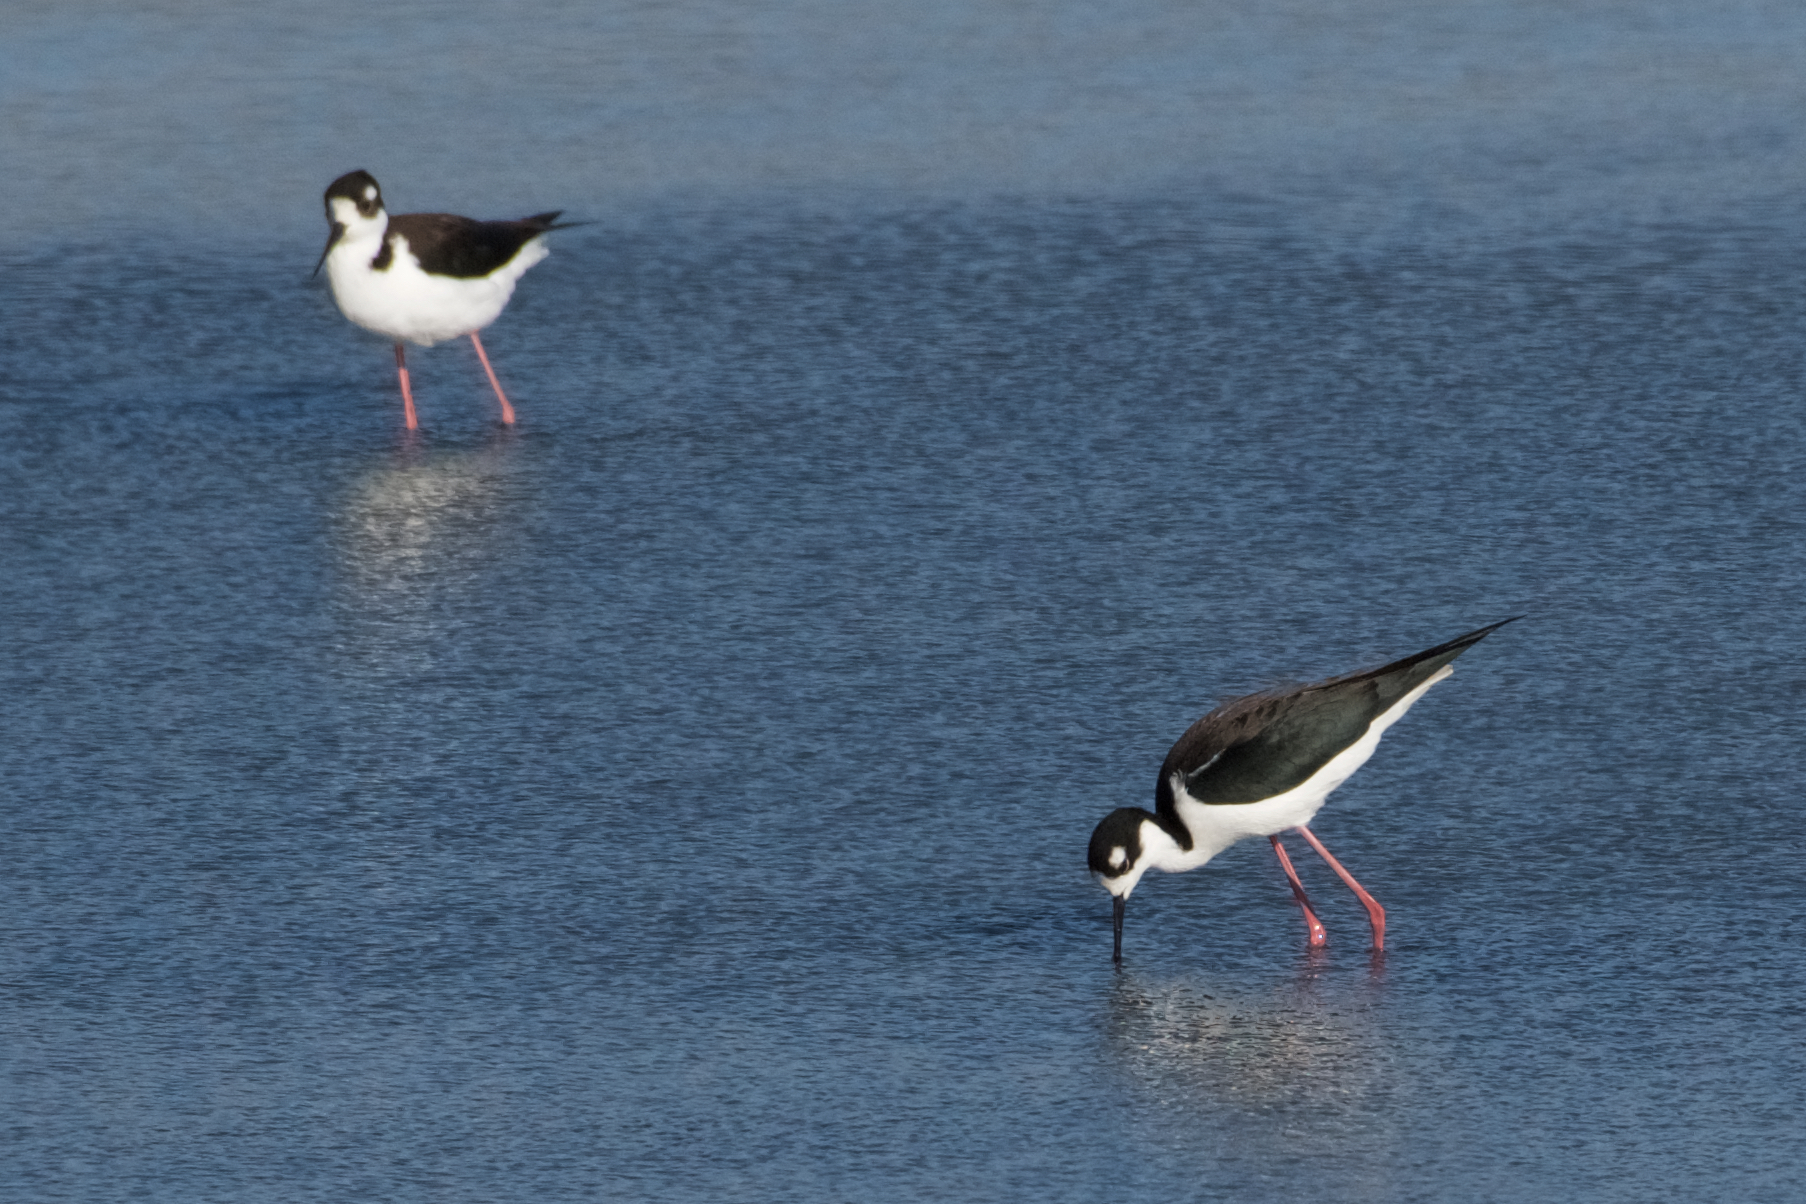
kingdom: Animalia
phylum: Chordata
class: Aves
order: Charadriiformes
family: Recurvirostridae
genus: Himantopus
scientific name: Himantopus mexicanus
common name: Black-necked stilt
